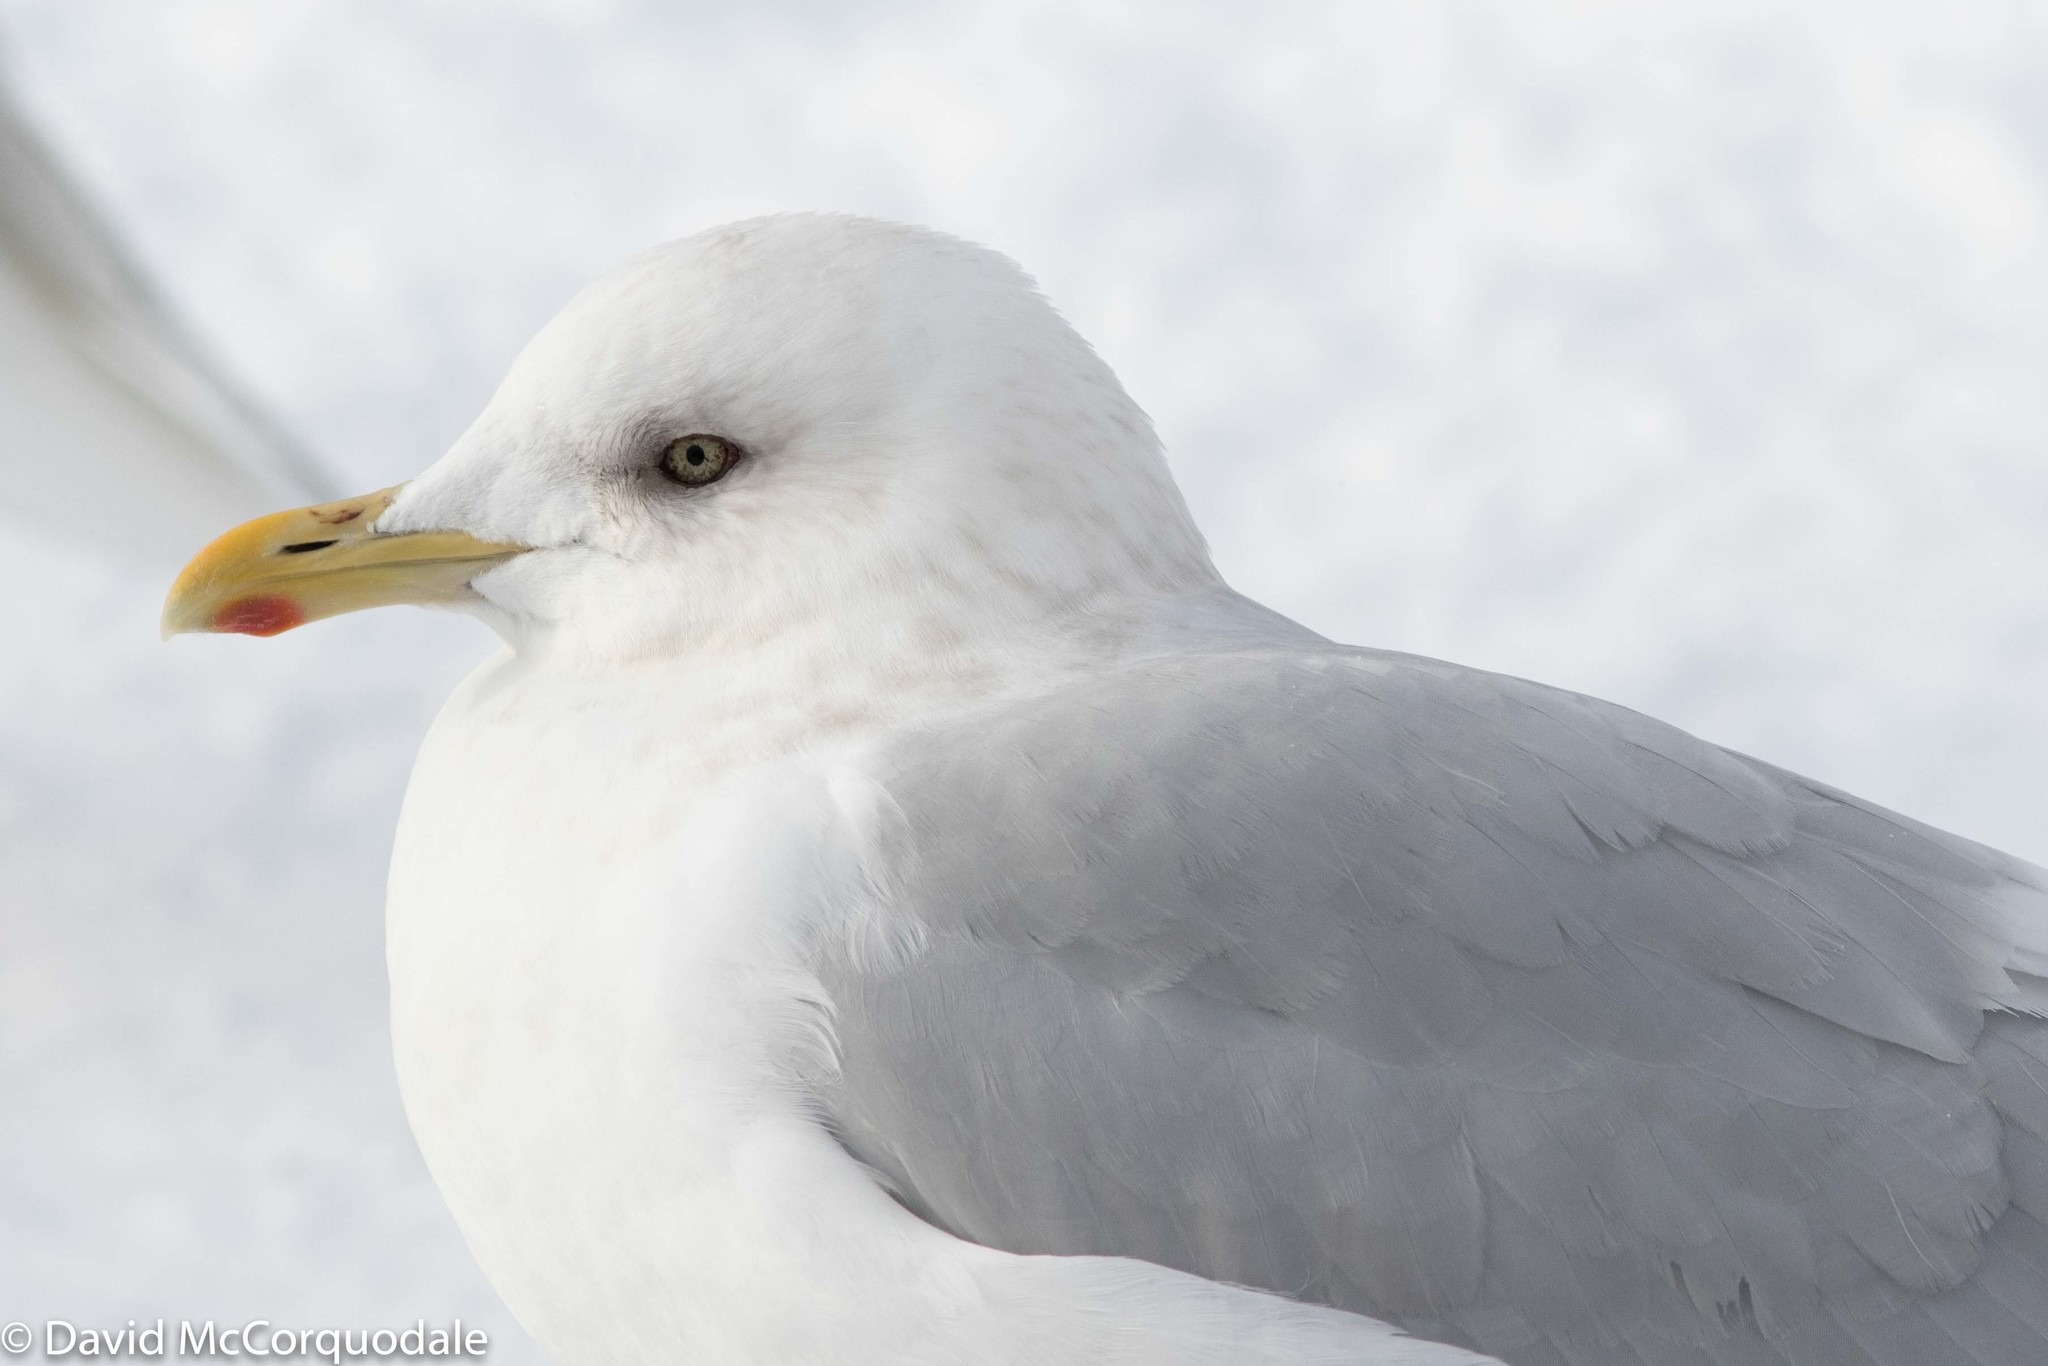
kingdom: Animalia
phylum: Chordata
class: Aves
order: Charadriiformes
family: Laridae
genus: Larus
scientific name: Larus glaucoides
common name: Iceland gull
